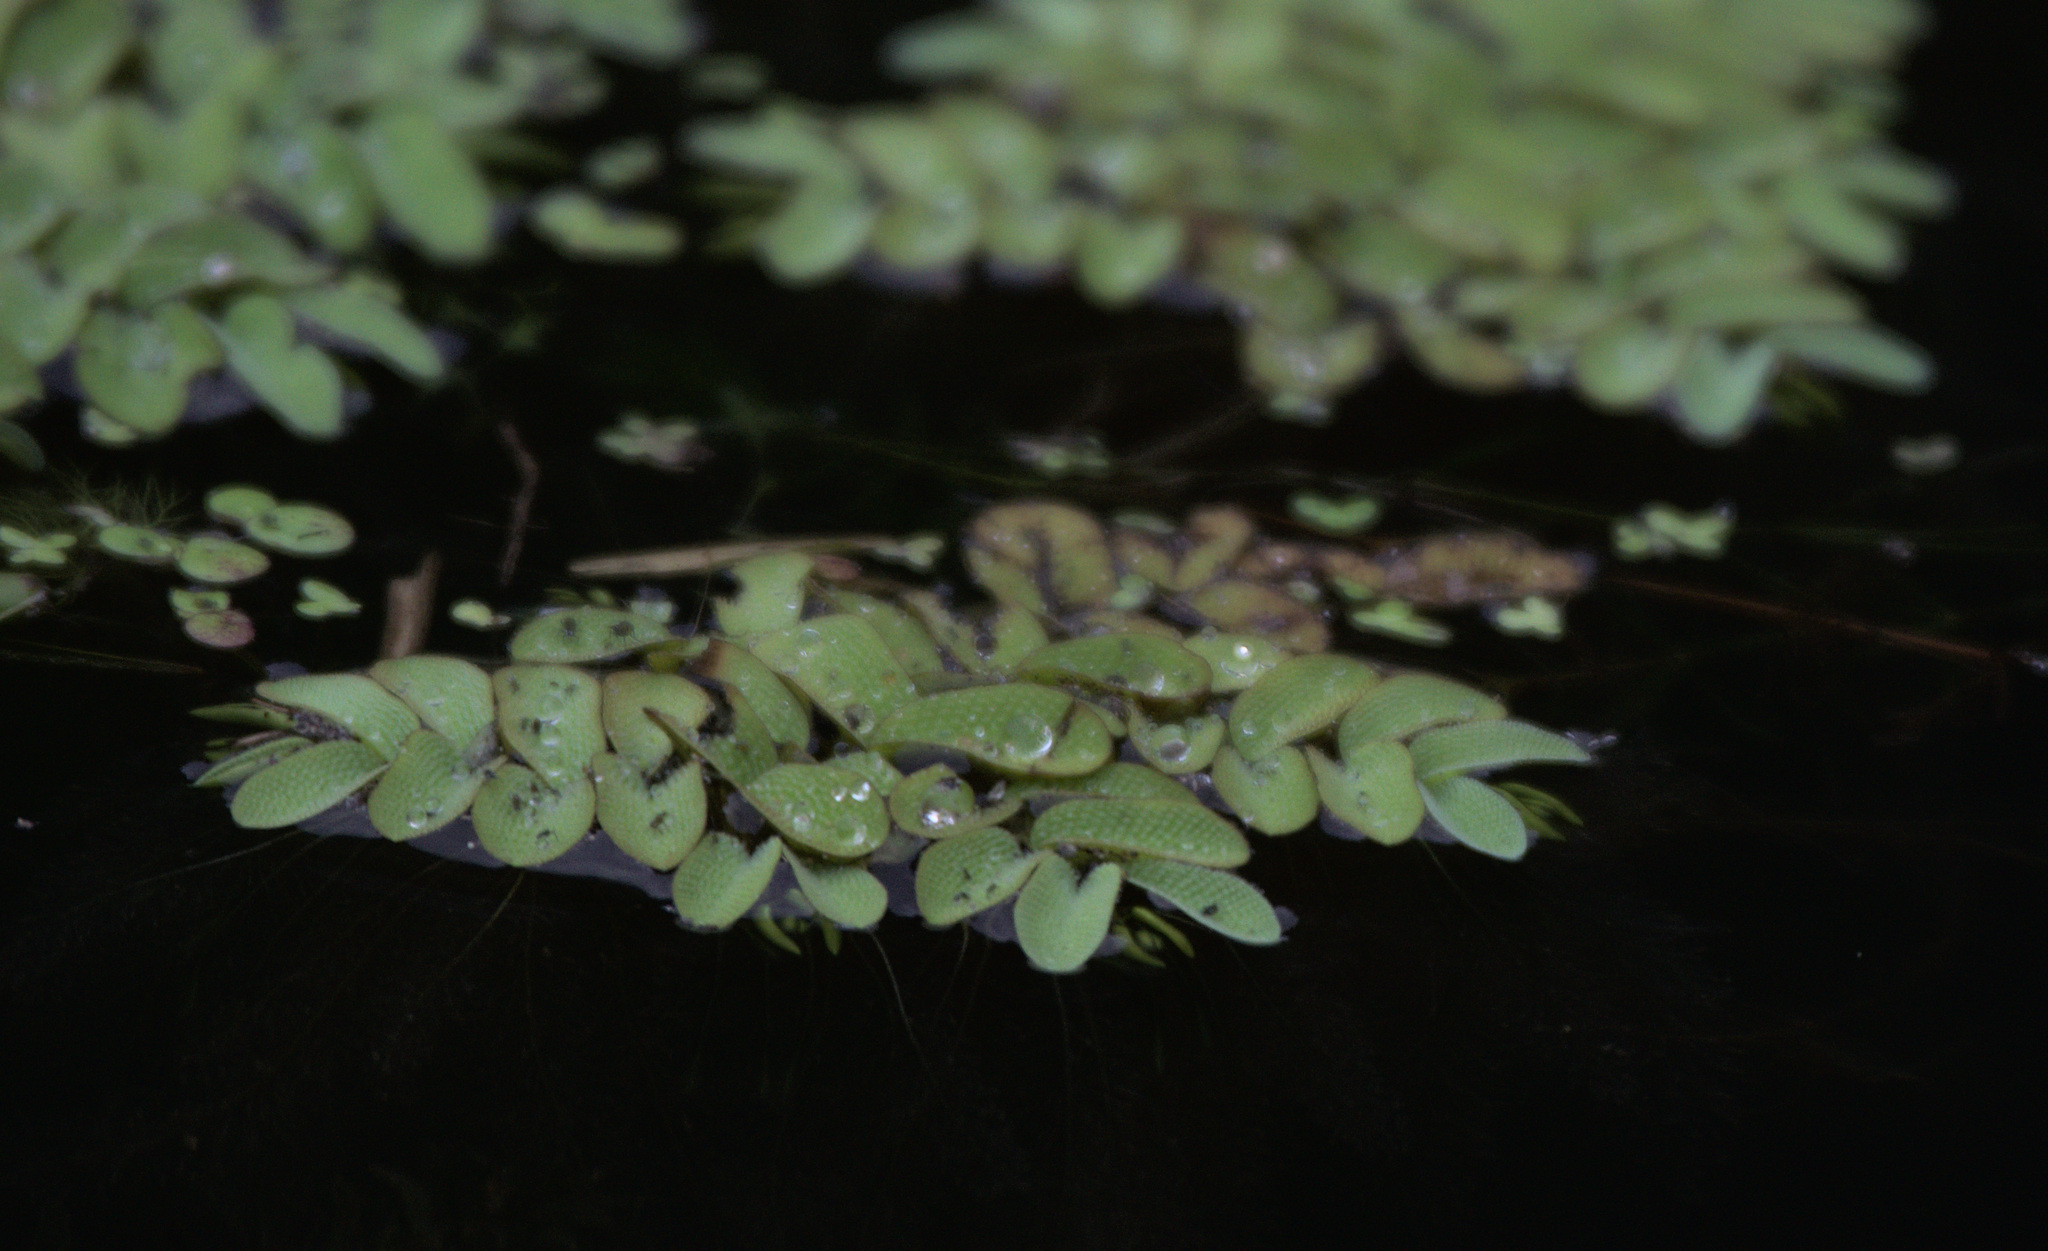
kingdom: Plantae
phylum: Tracheophyta
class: Polypodiopsida
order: Salviniales
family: Salviniaceae
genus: Salvinia
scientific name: Salvinia natans
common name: Floating fern
